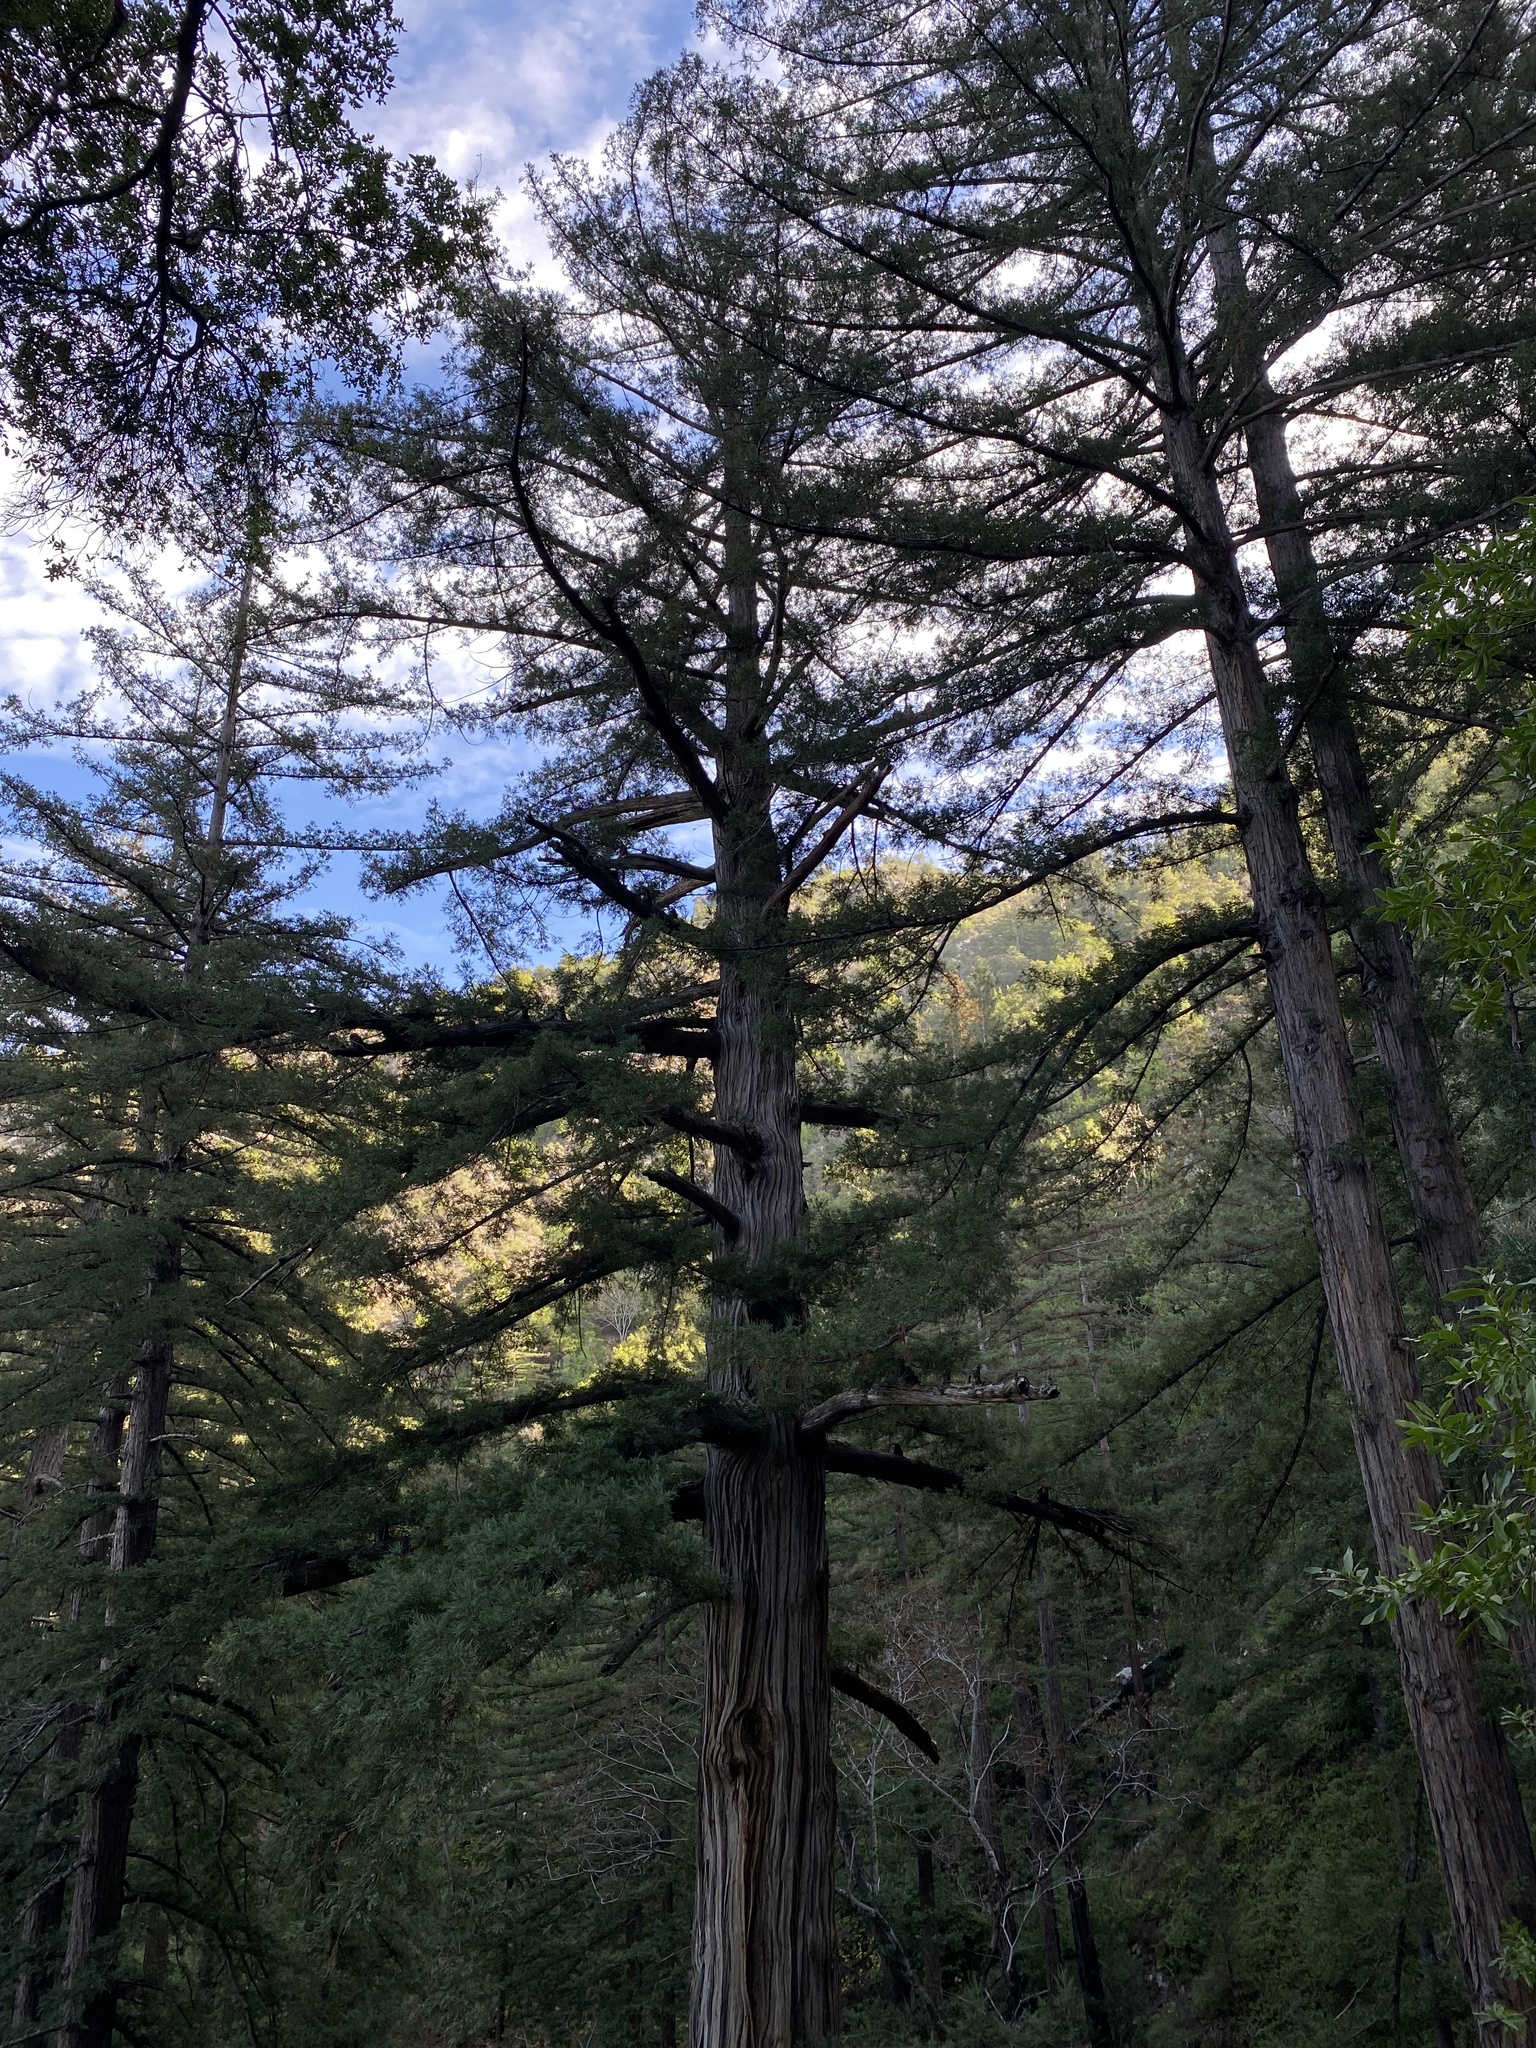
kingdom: Plantae
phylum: Tracheophyta
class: Pinopsida
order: Pinales
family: Cupressaceae
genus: Sequoia
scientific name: Sequoia sempervirens
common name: Coast redwood
